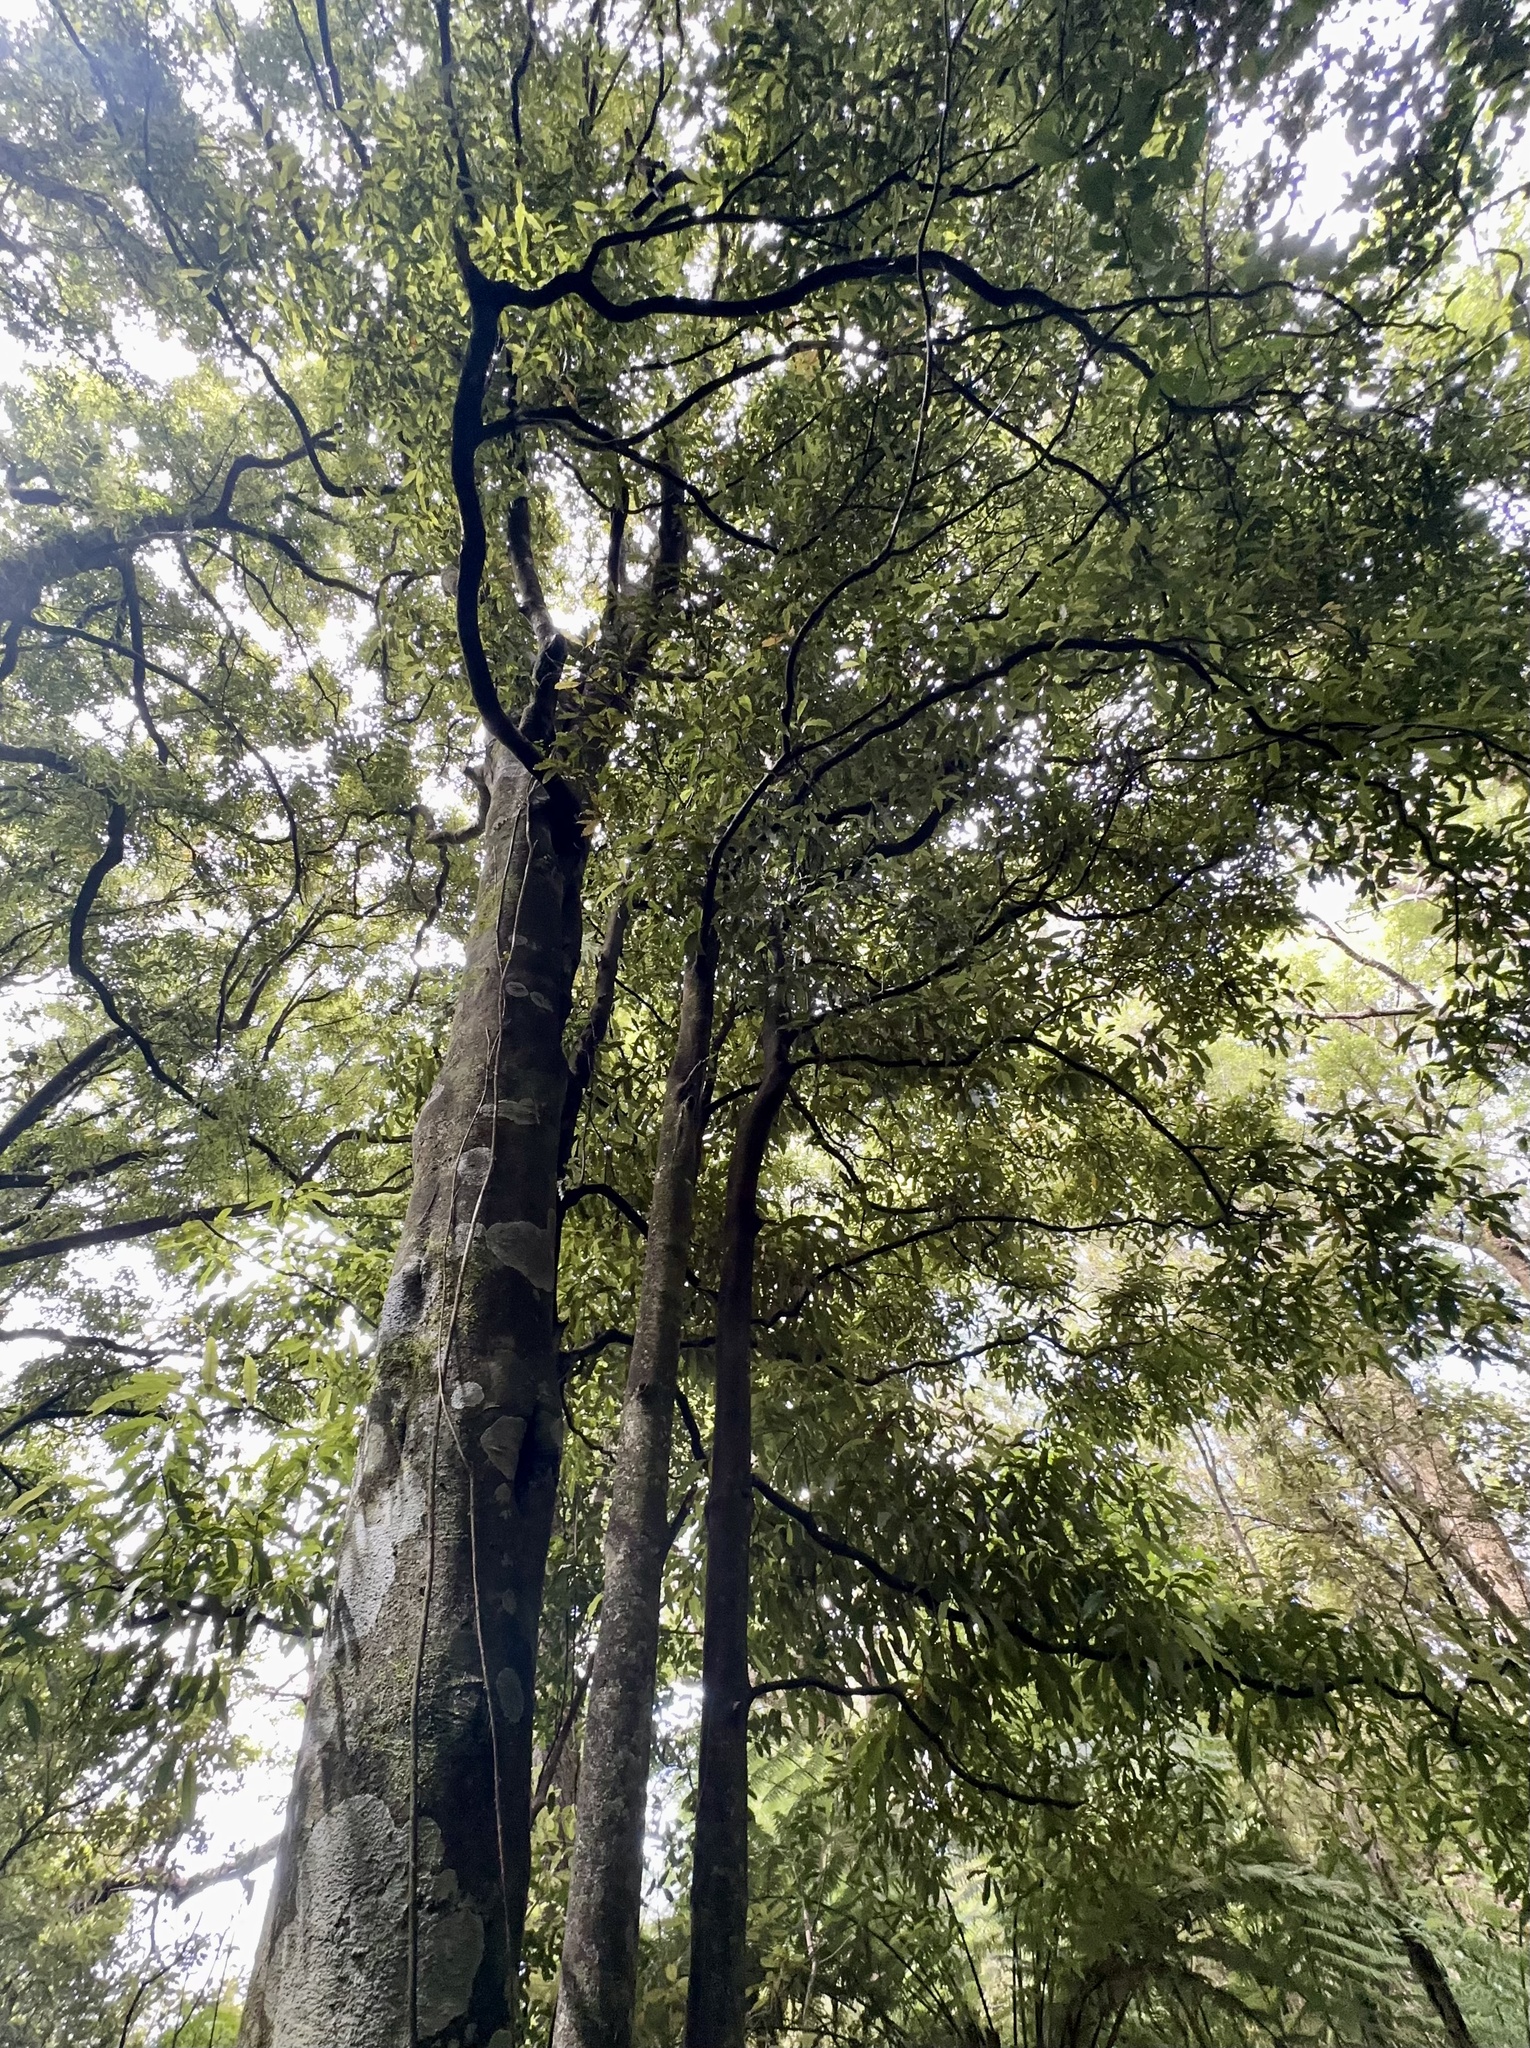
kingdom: Plantae
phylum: Tracheophyta
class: Magnoliopsida
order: Laurales
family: Lauraceae
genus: Beilschmiedia
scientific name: Beilschmiedia tawa
